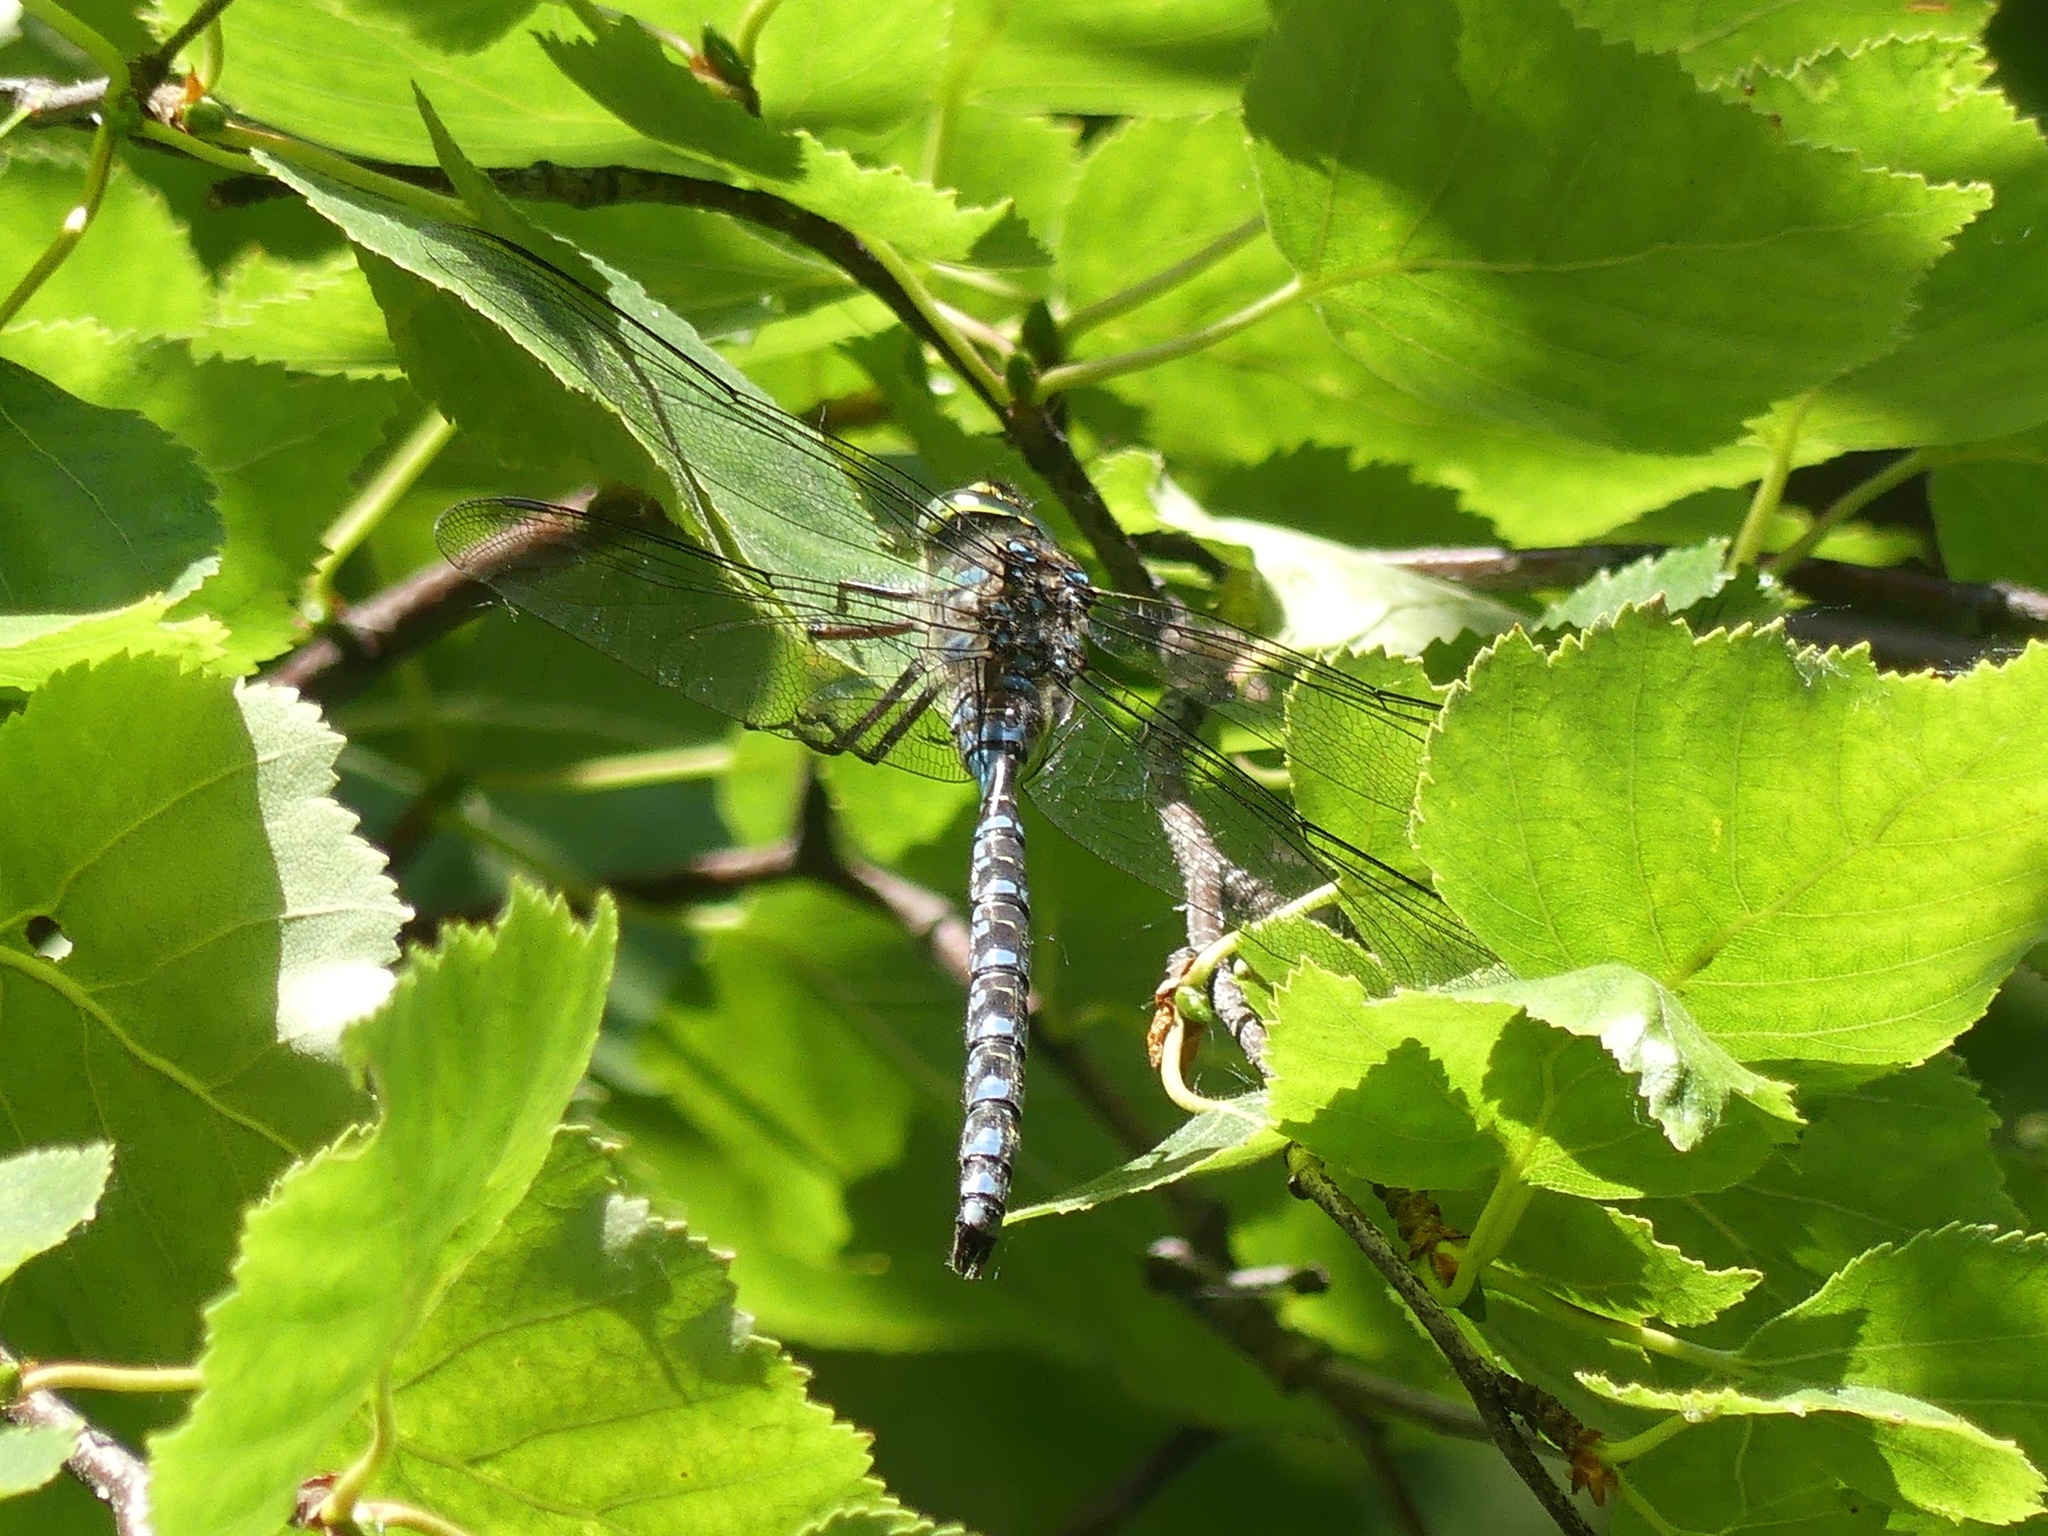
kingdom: Animalia
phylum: Arthropoda
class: Insecta
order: Odonata
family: Aeshnidae
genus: Aeshna
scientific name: Aeshna eremita
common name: Lake darner
